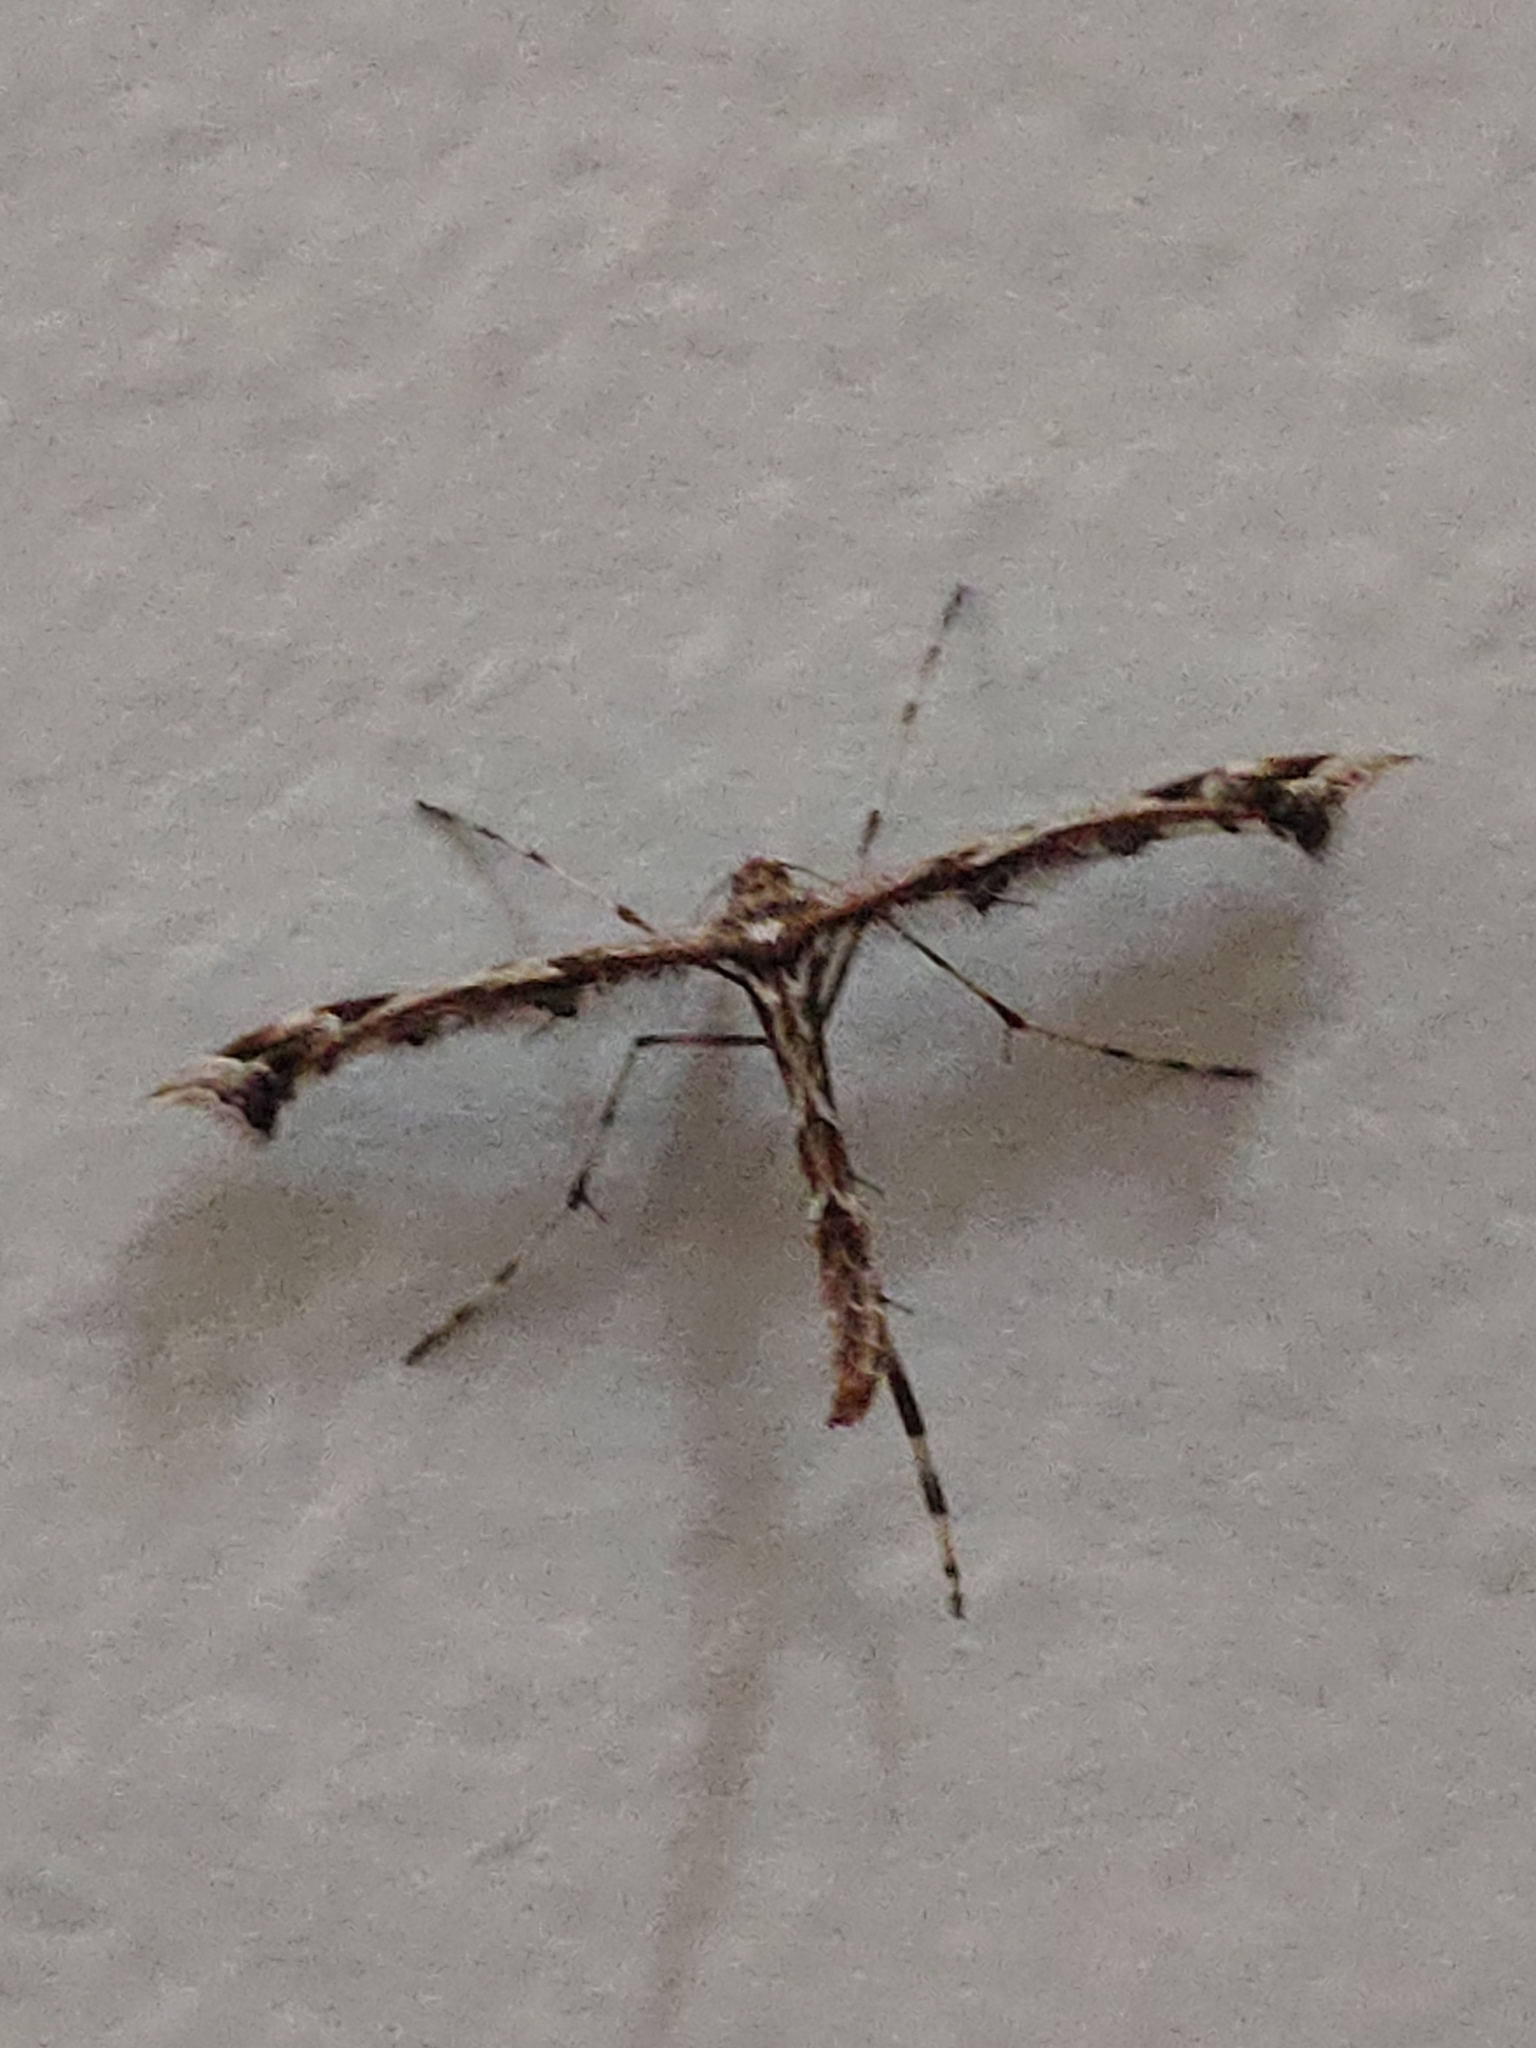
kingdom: Animalia
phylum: Arthropoda
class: Insecta
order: Lepidoptera
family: Pterophoridae
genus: Amblyptilia
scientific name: Amblyptilia acanthadactyla
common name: Beautiful plume
